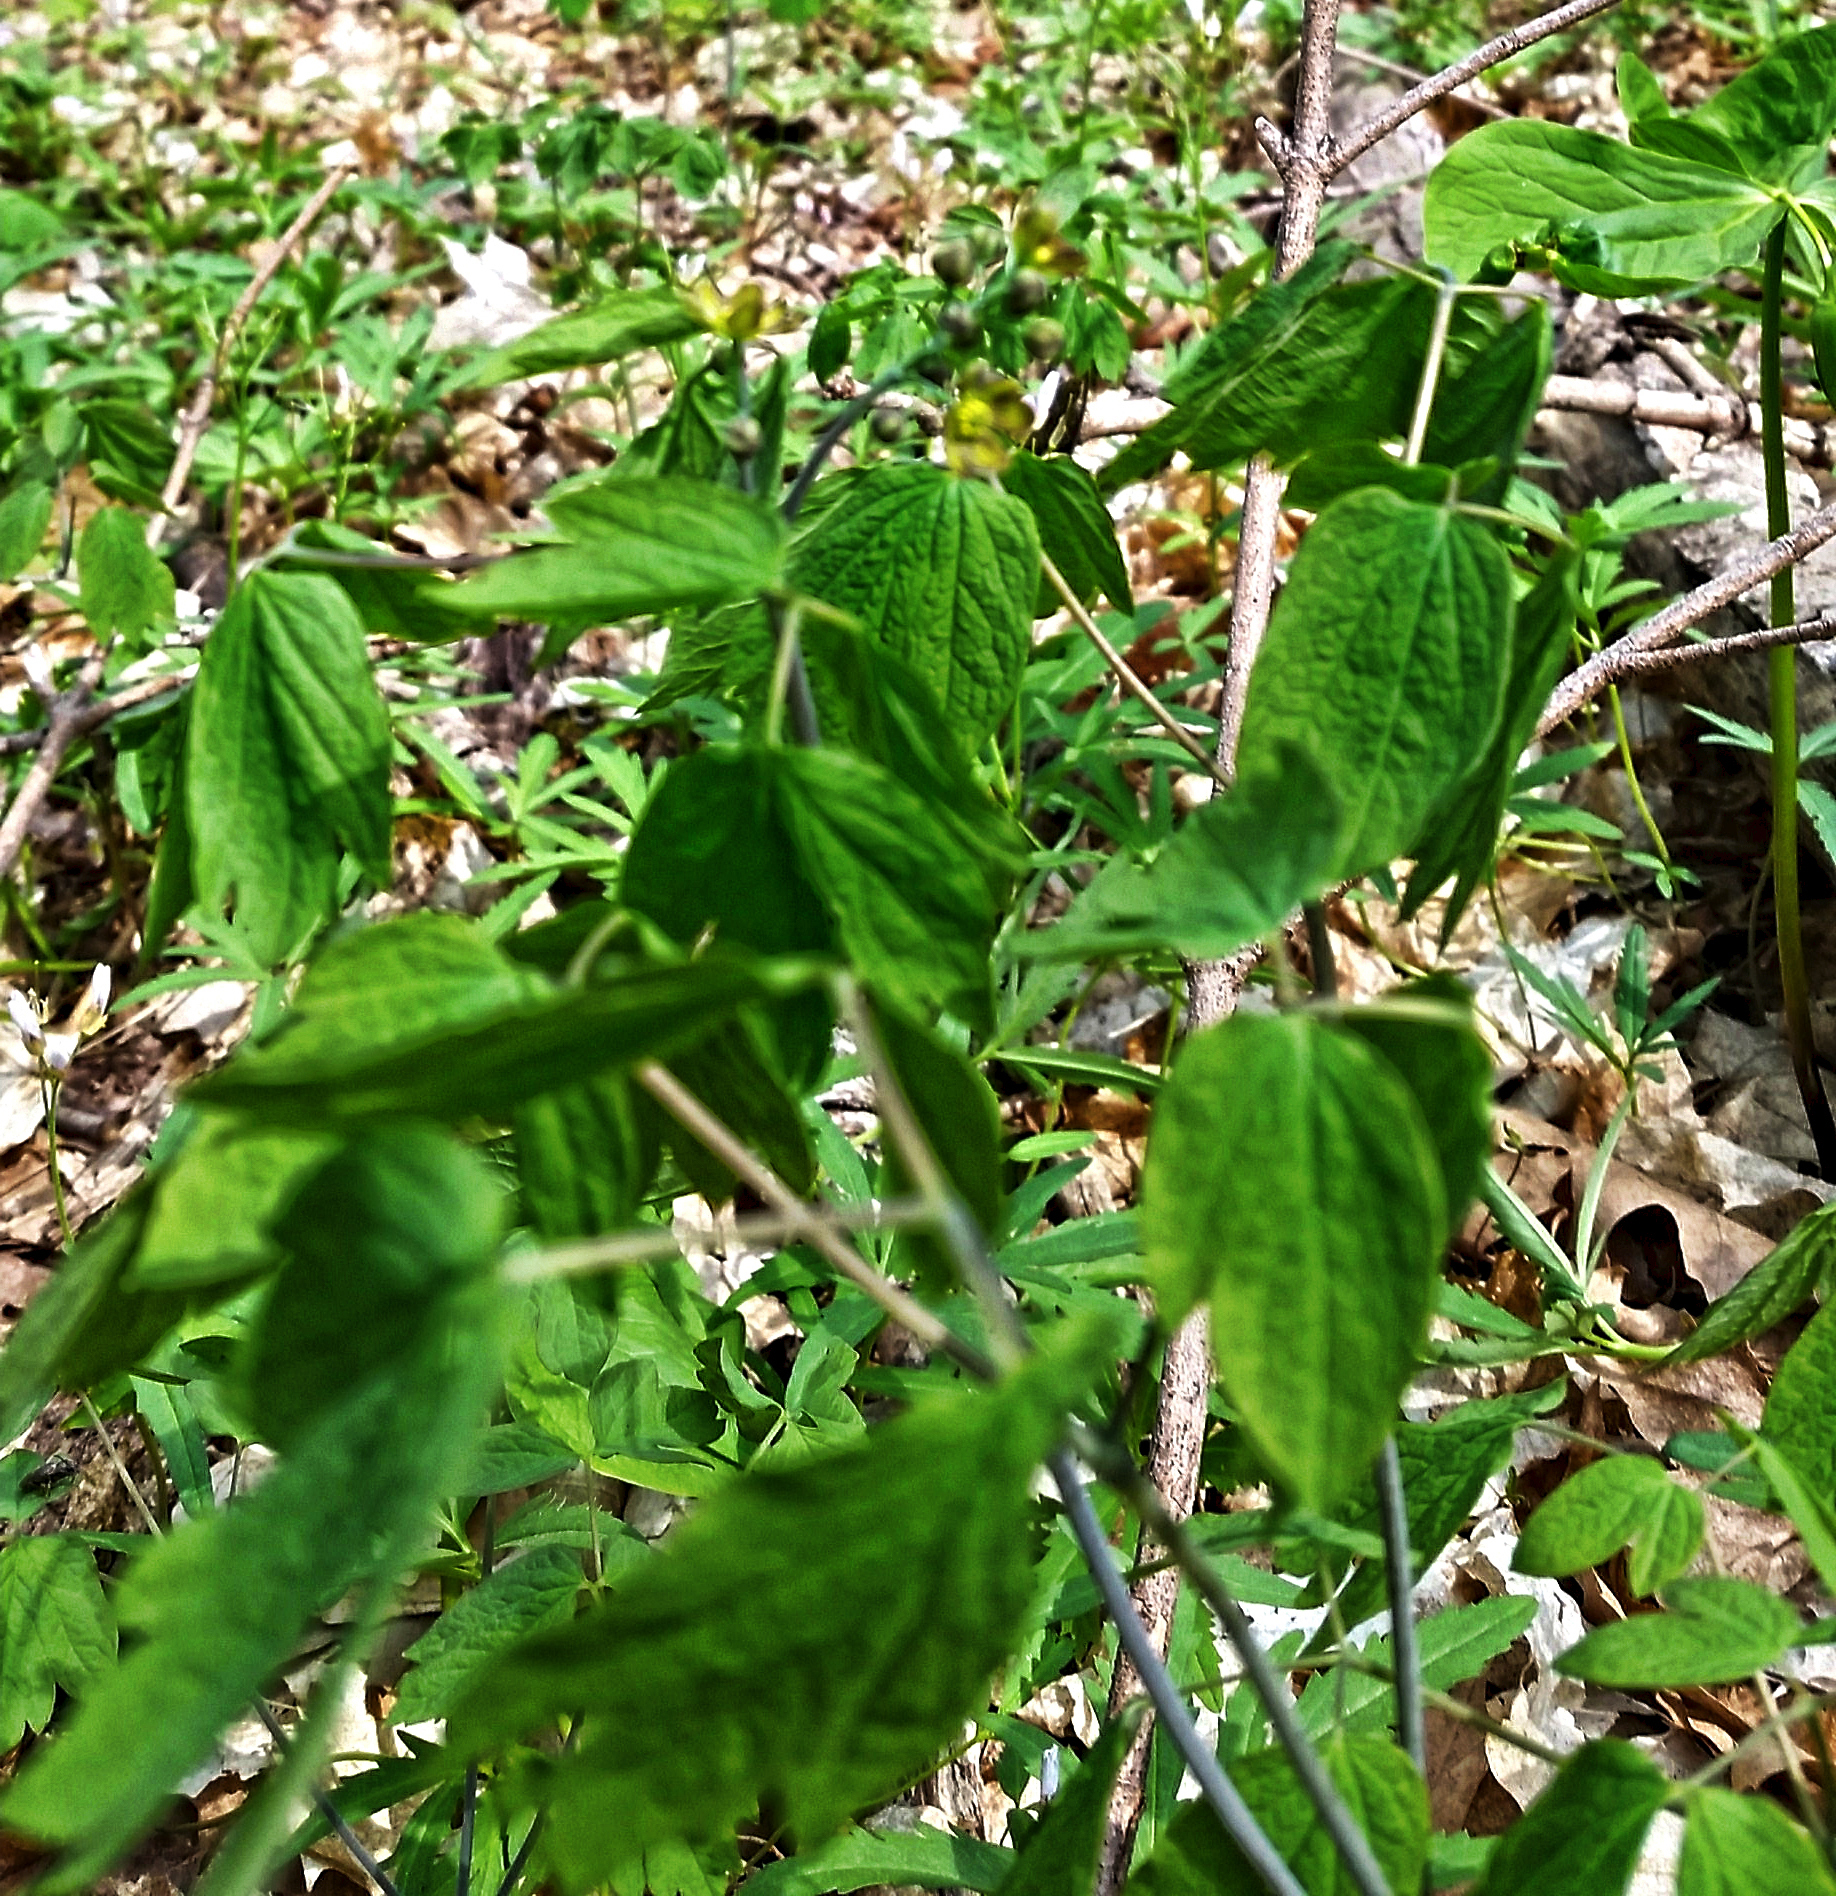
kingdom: Plantae
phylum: Tracheophyta
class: Magnoliopsida
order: Ranunculales
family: Berberidaceae
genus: Caulophyllum
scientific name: Caulophyllum thalictroides
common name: Blue cohosh
